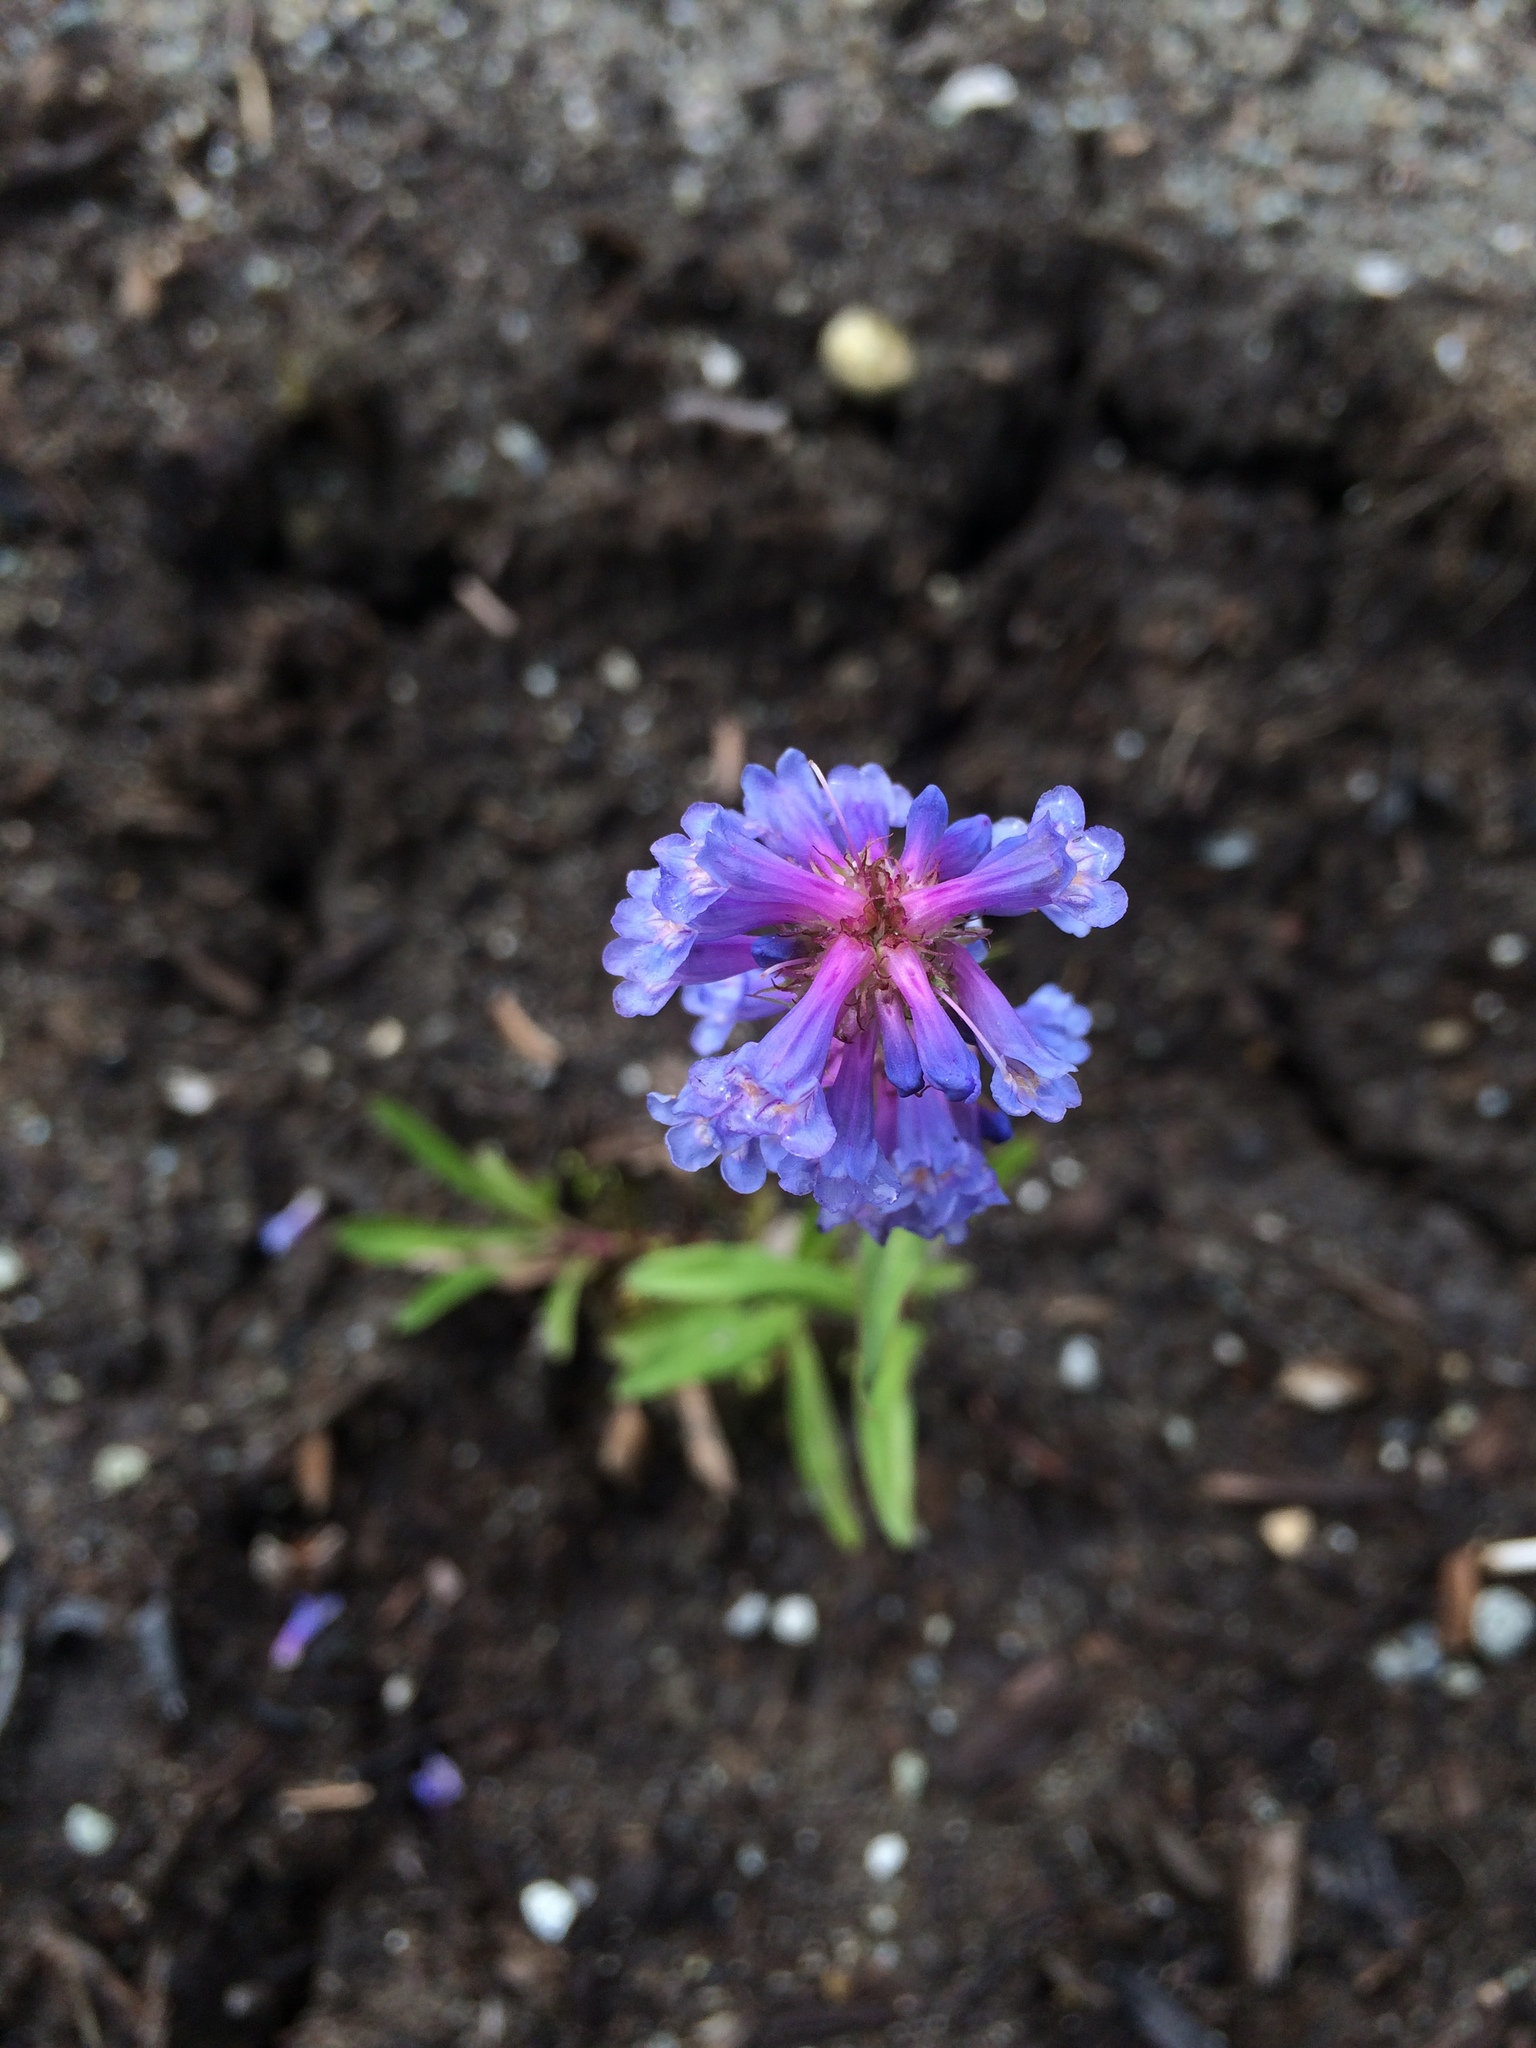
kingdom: Plantae
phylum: Tracheophyta
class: Magnoliopsida
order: Lamiales
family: Plantaginaceae
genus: Penstemon
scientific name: Penstemon procerus
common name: Small-flower penstemon
